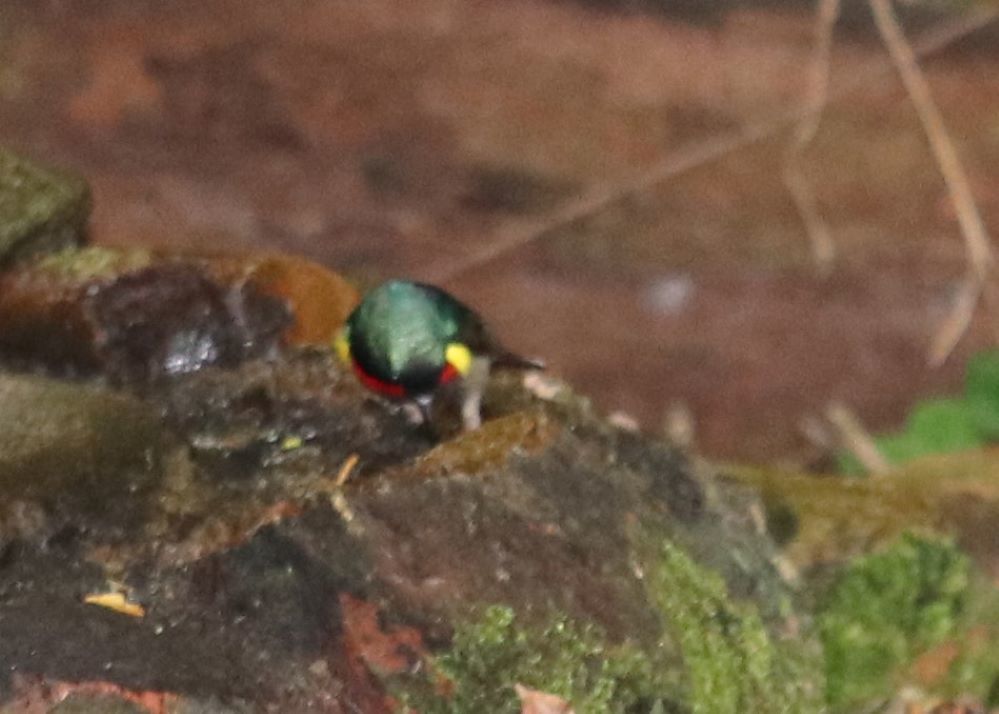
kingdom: Animalia
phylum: Chordata
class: Aves
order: Passeriformes
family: Nectariniidae
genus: Cinnyris
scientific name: Cinnyris chalybeus
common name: Southern double-collared sunbird
